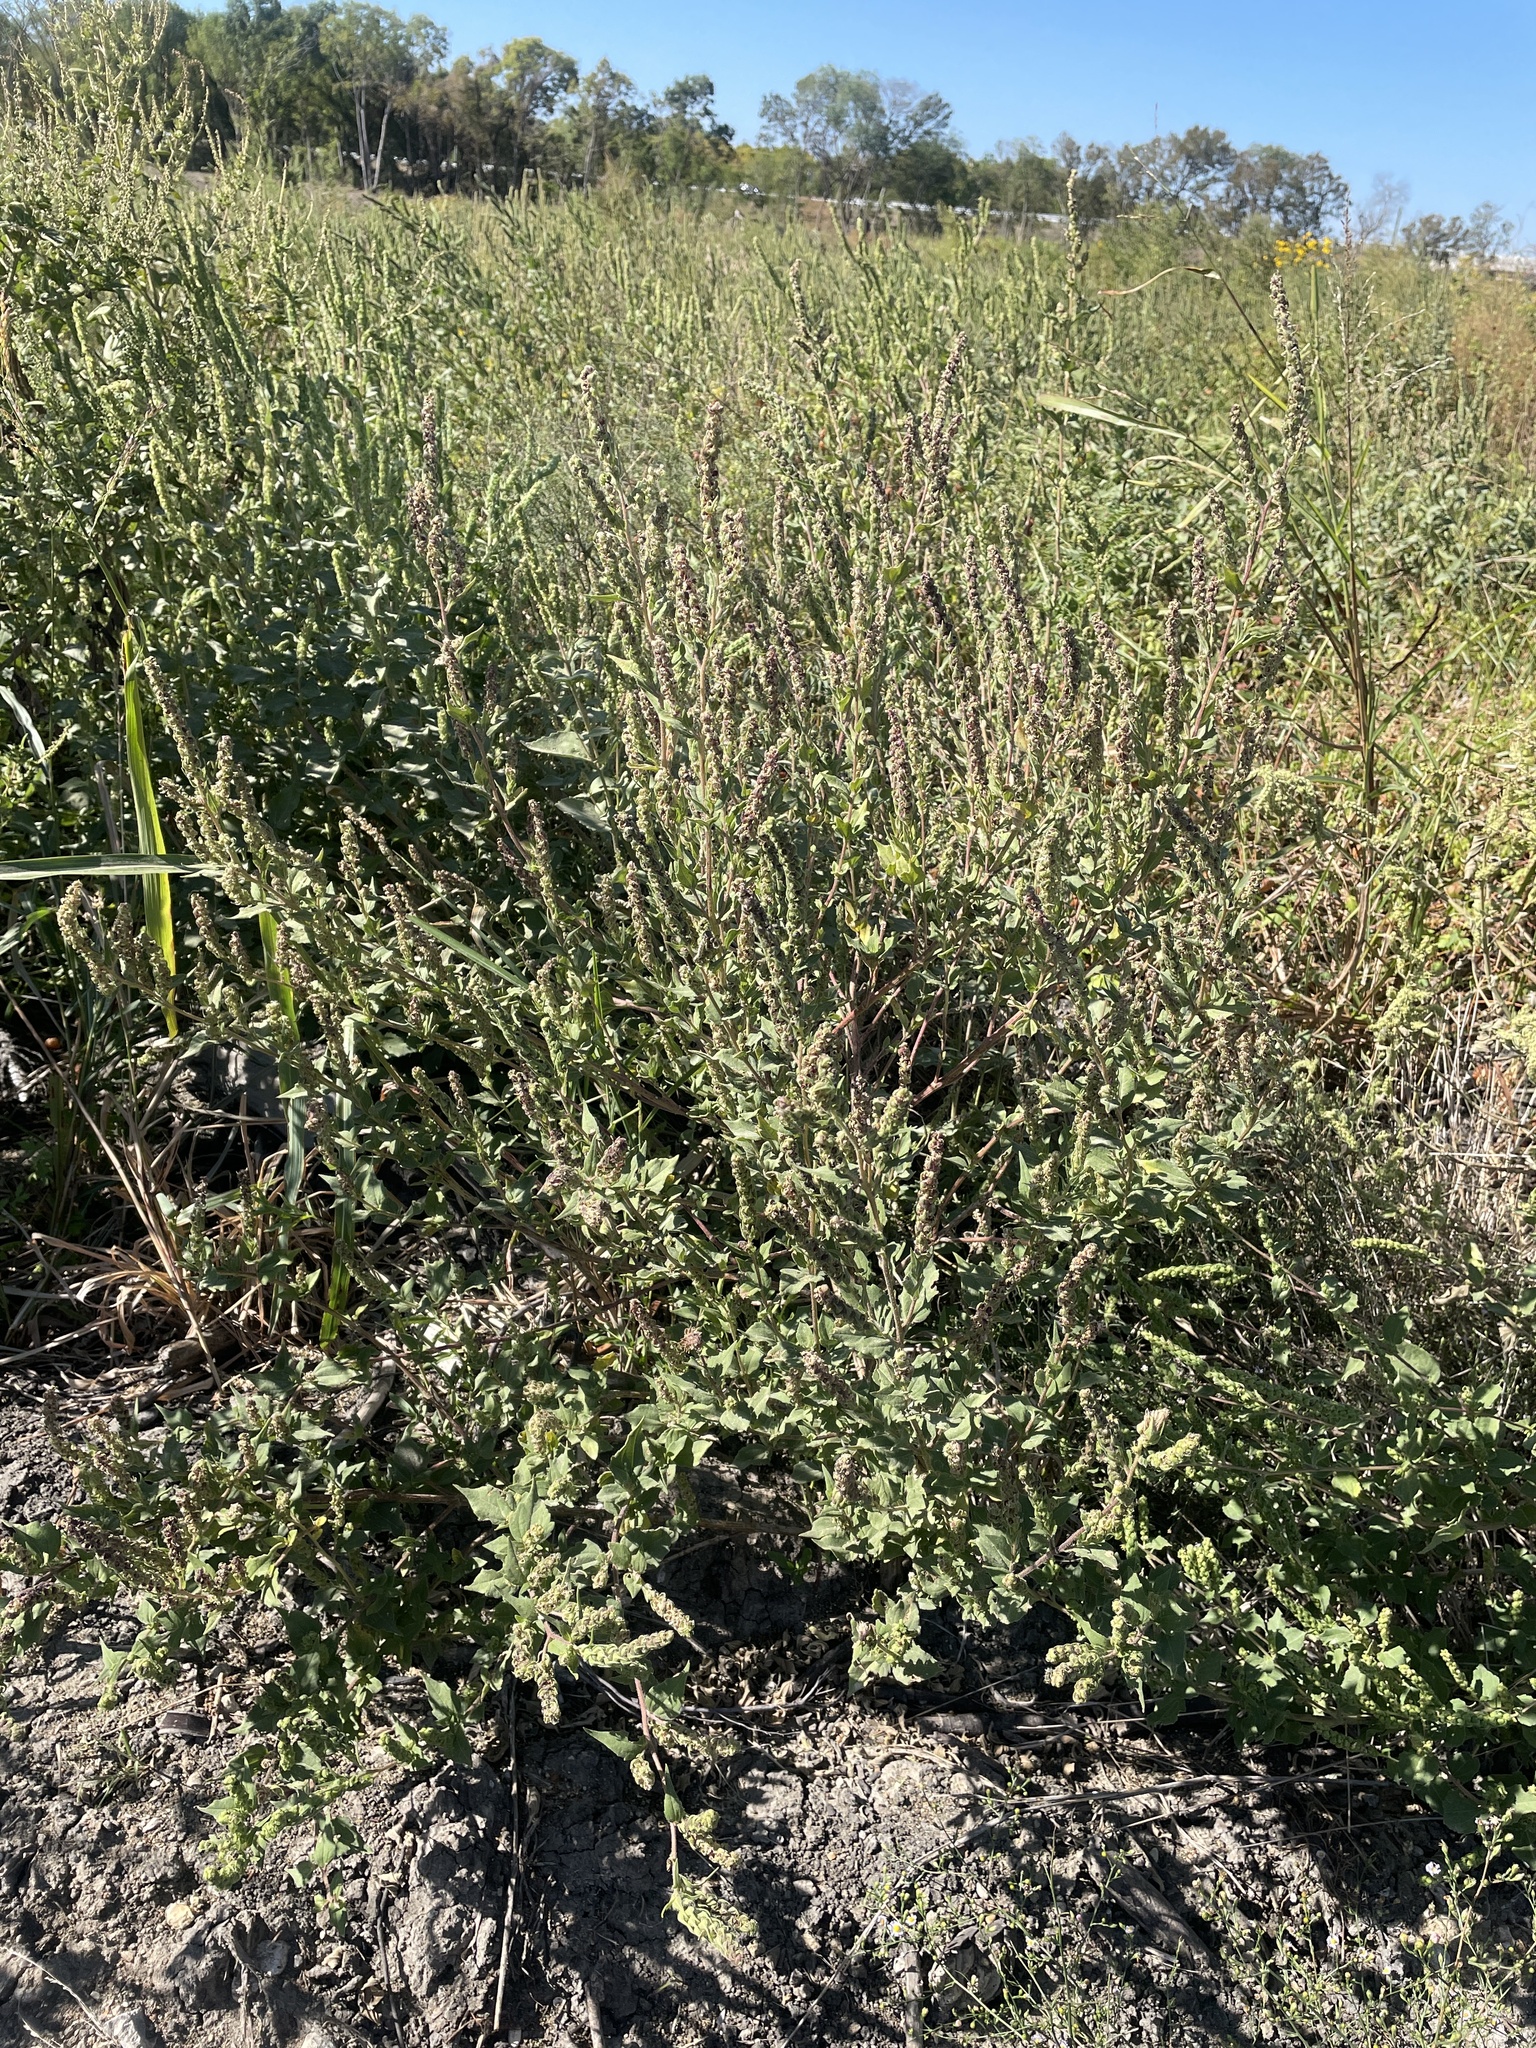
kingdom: Plantae
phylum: Tracheophyta
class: Magnoliopsida
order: Asterales
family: Asteraceae
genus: Iva
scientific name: Iva annua
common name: Marsh-elder
